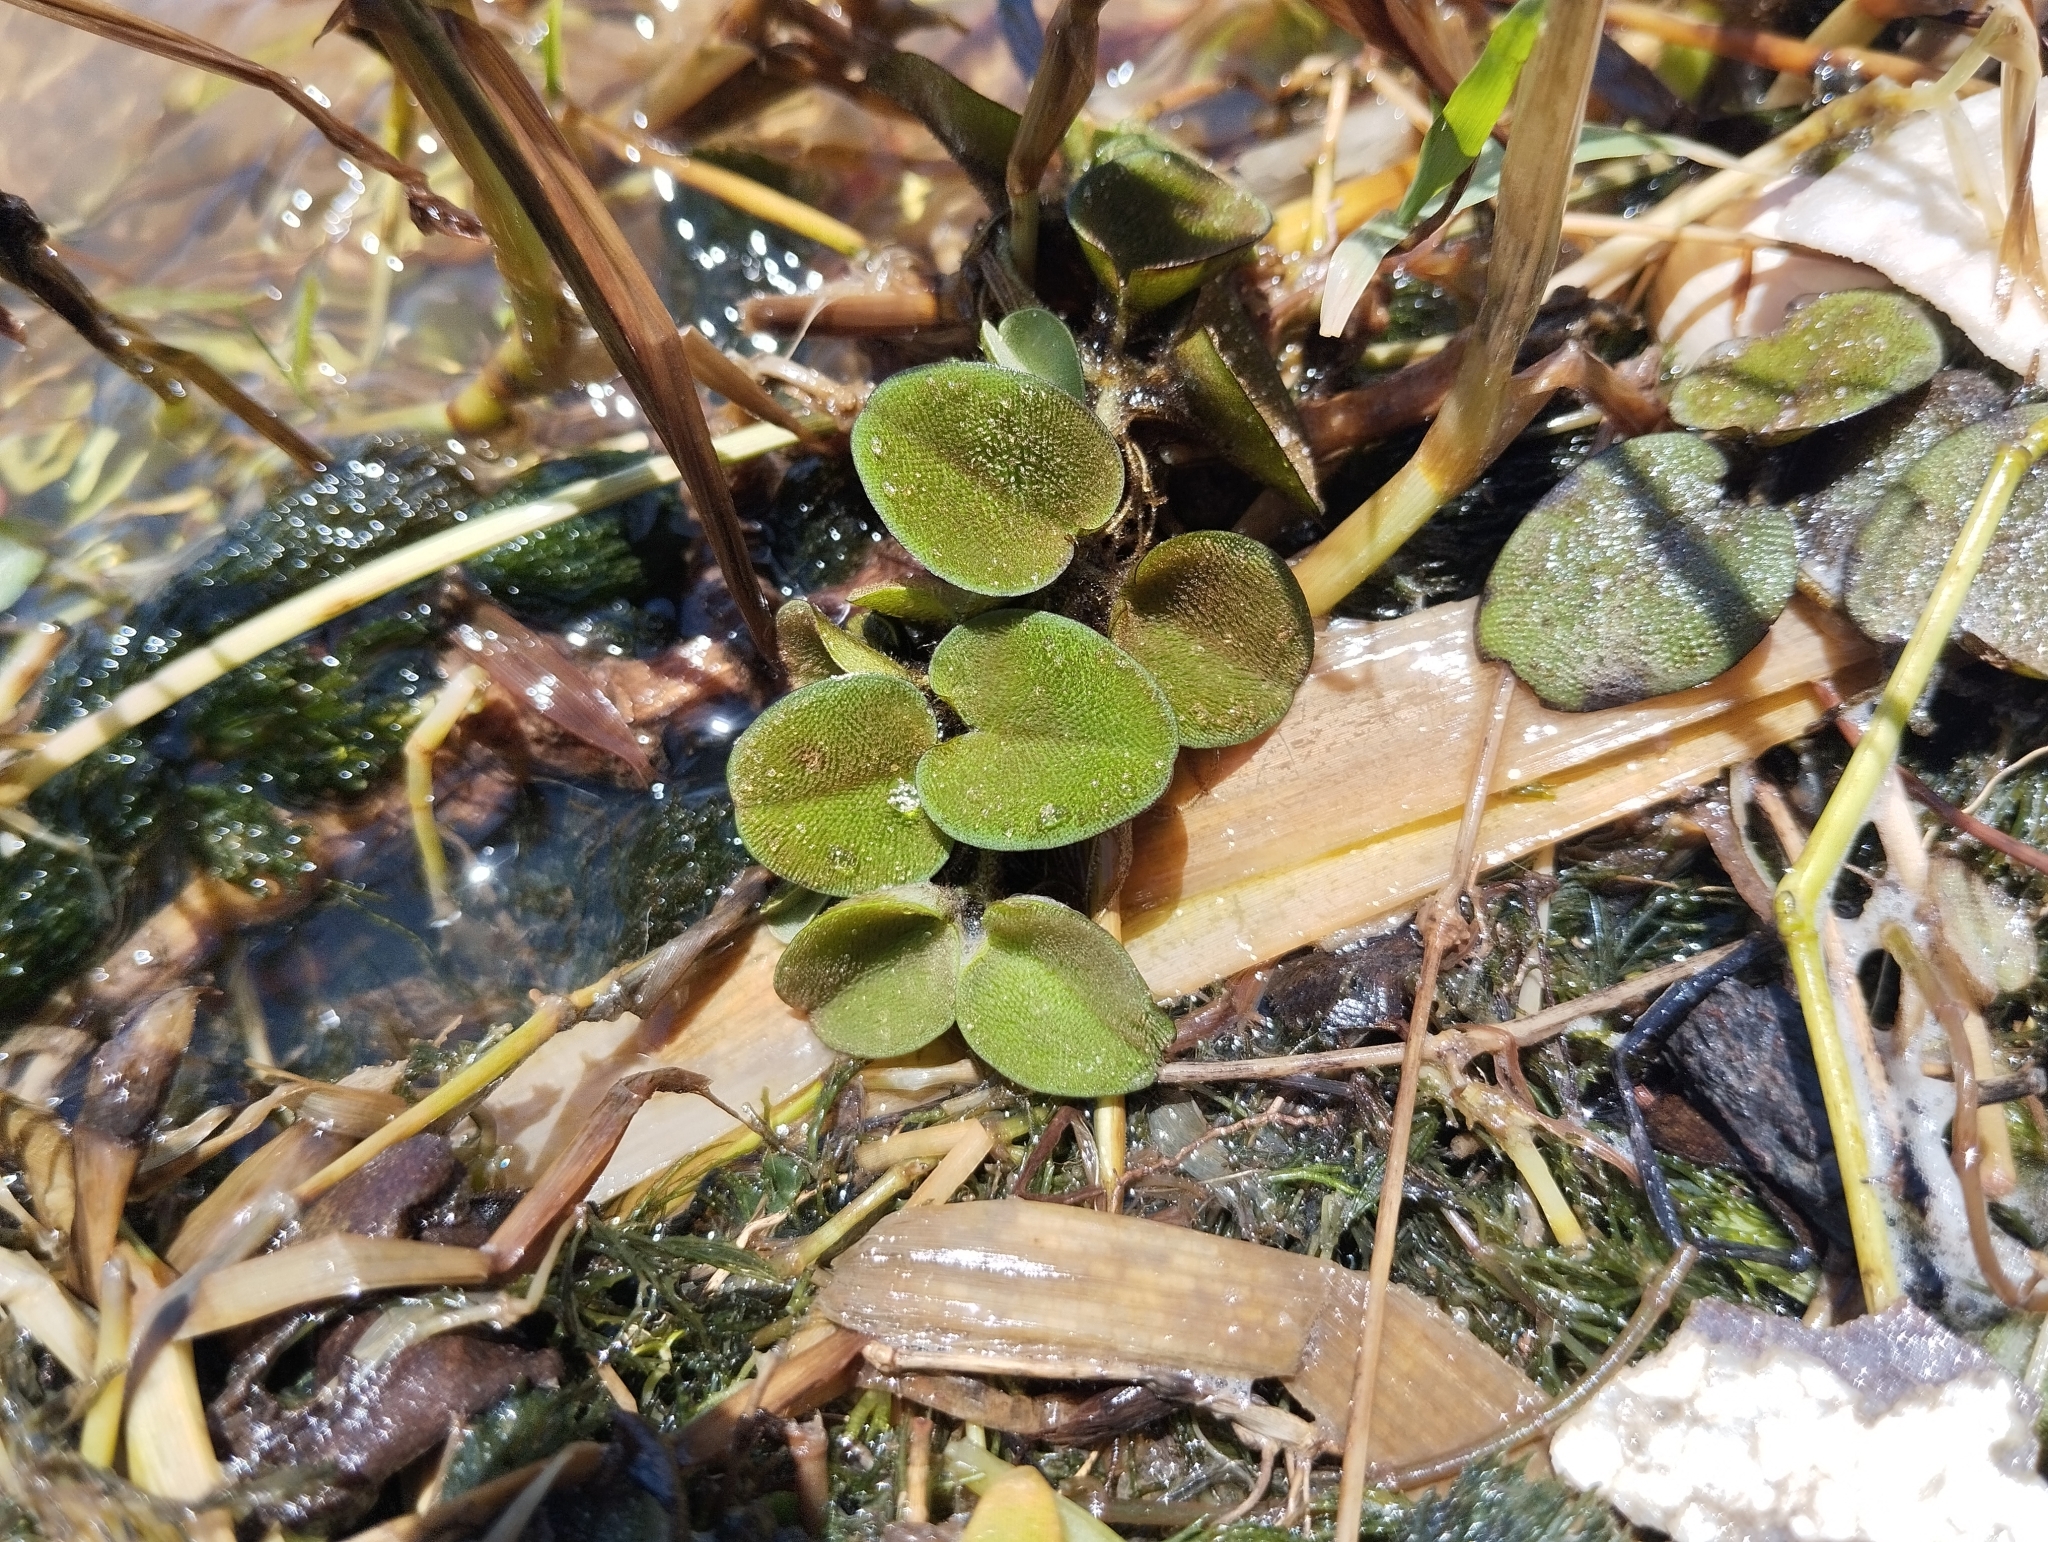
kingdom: Plantae
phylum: Tracheophyta
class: Polypodiopsida
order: Salviniales
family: Salviniaceae
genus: Salvinia
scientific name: Salvinia auriculata
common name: African payal
